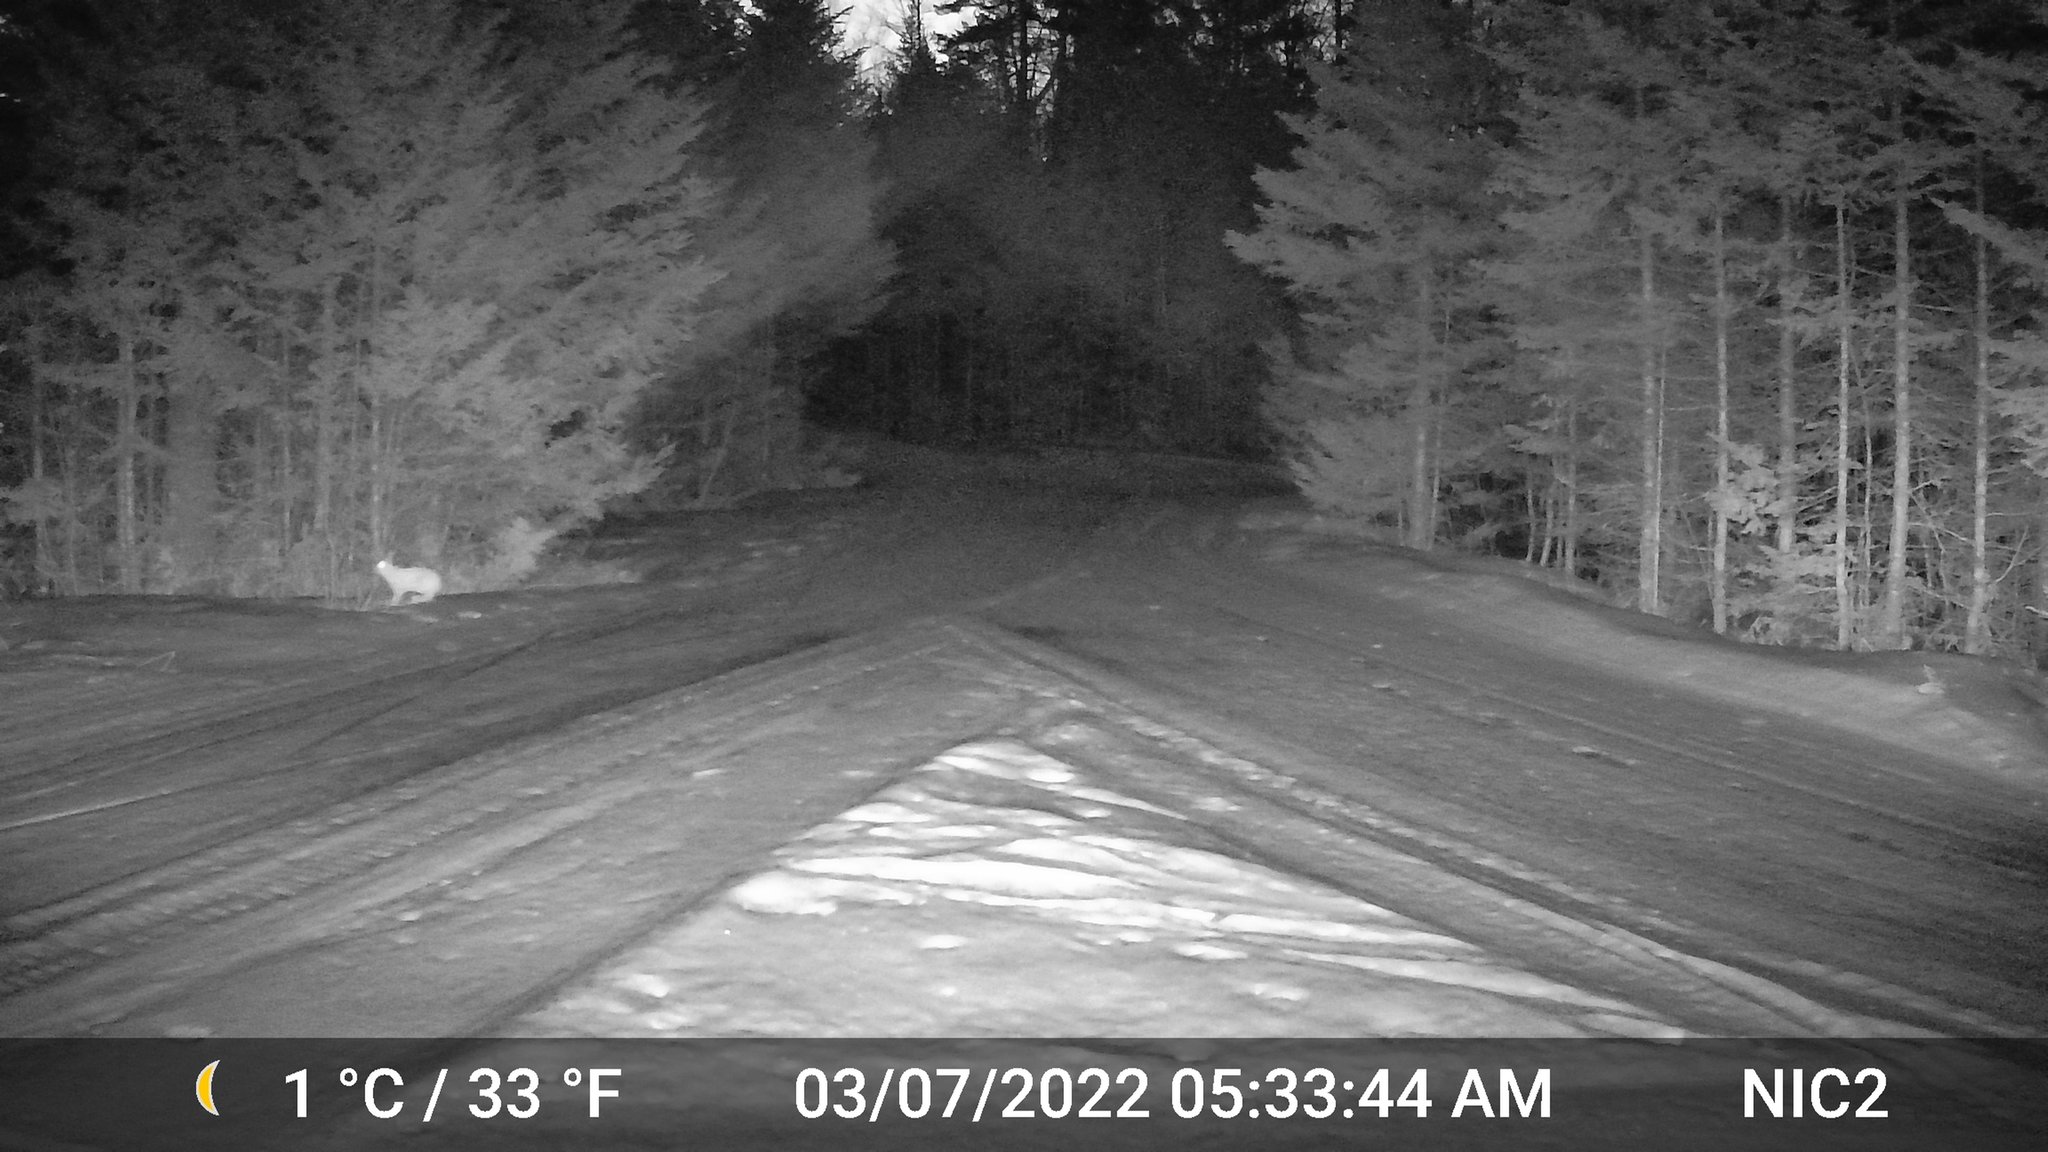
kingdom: Animalia
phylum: Chordata
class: Mammalia
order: Lagomorpha
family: Leporidae
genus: Lepus
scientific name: Lepus americanus
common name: Snowshoe hare
